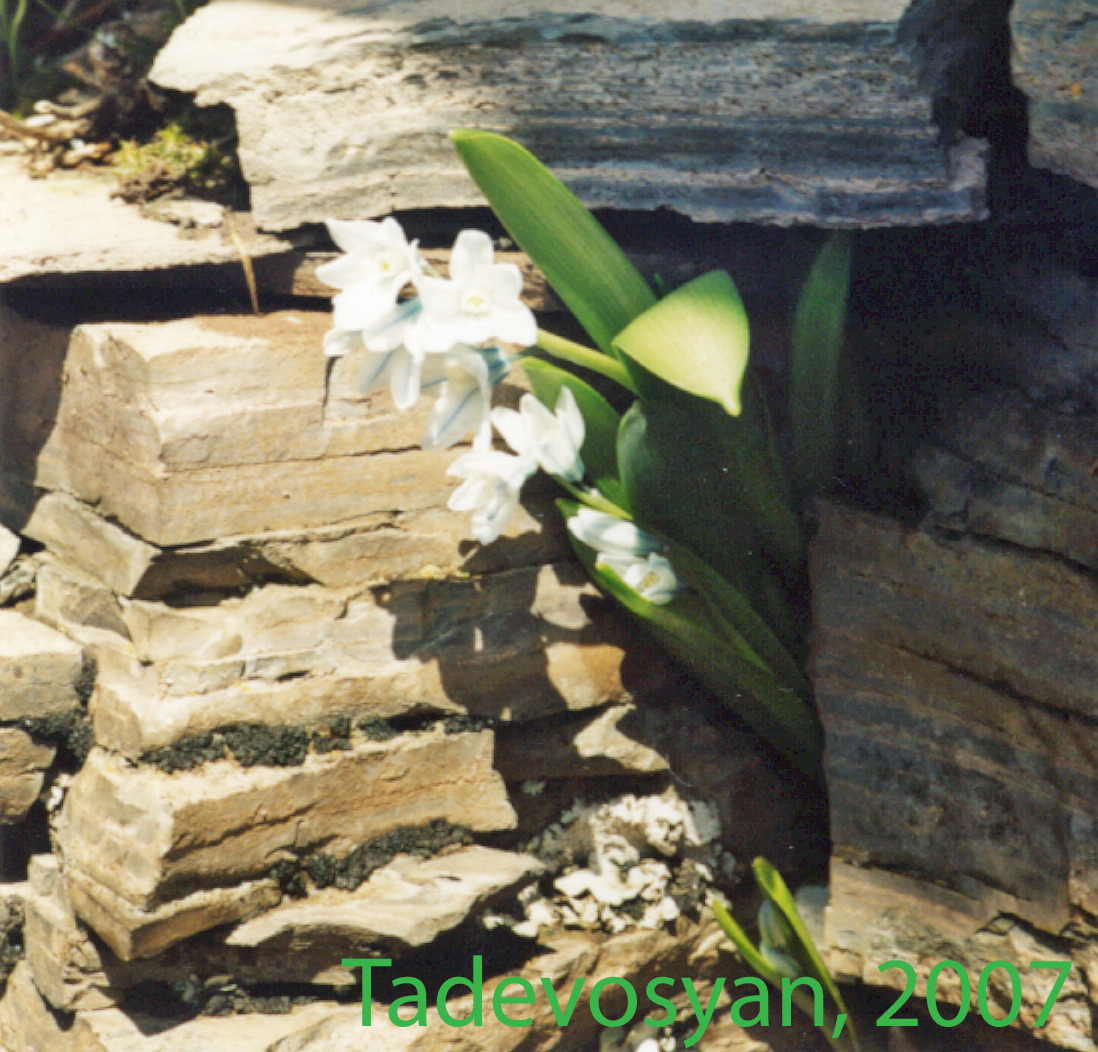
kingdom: Plantae
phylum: Tracheophyta
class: Liliopsida
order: Asparagales
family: Asparagaceae
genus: Puschkinia
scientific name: Puschkinia scilloides
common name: Striped squill
